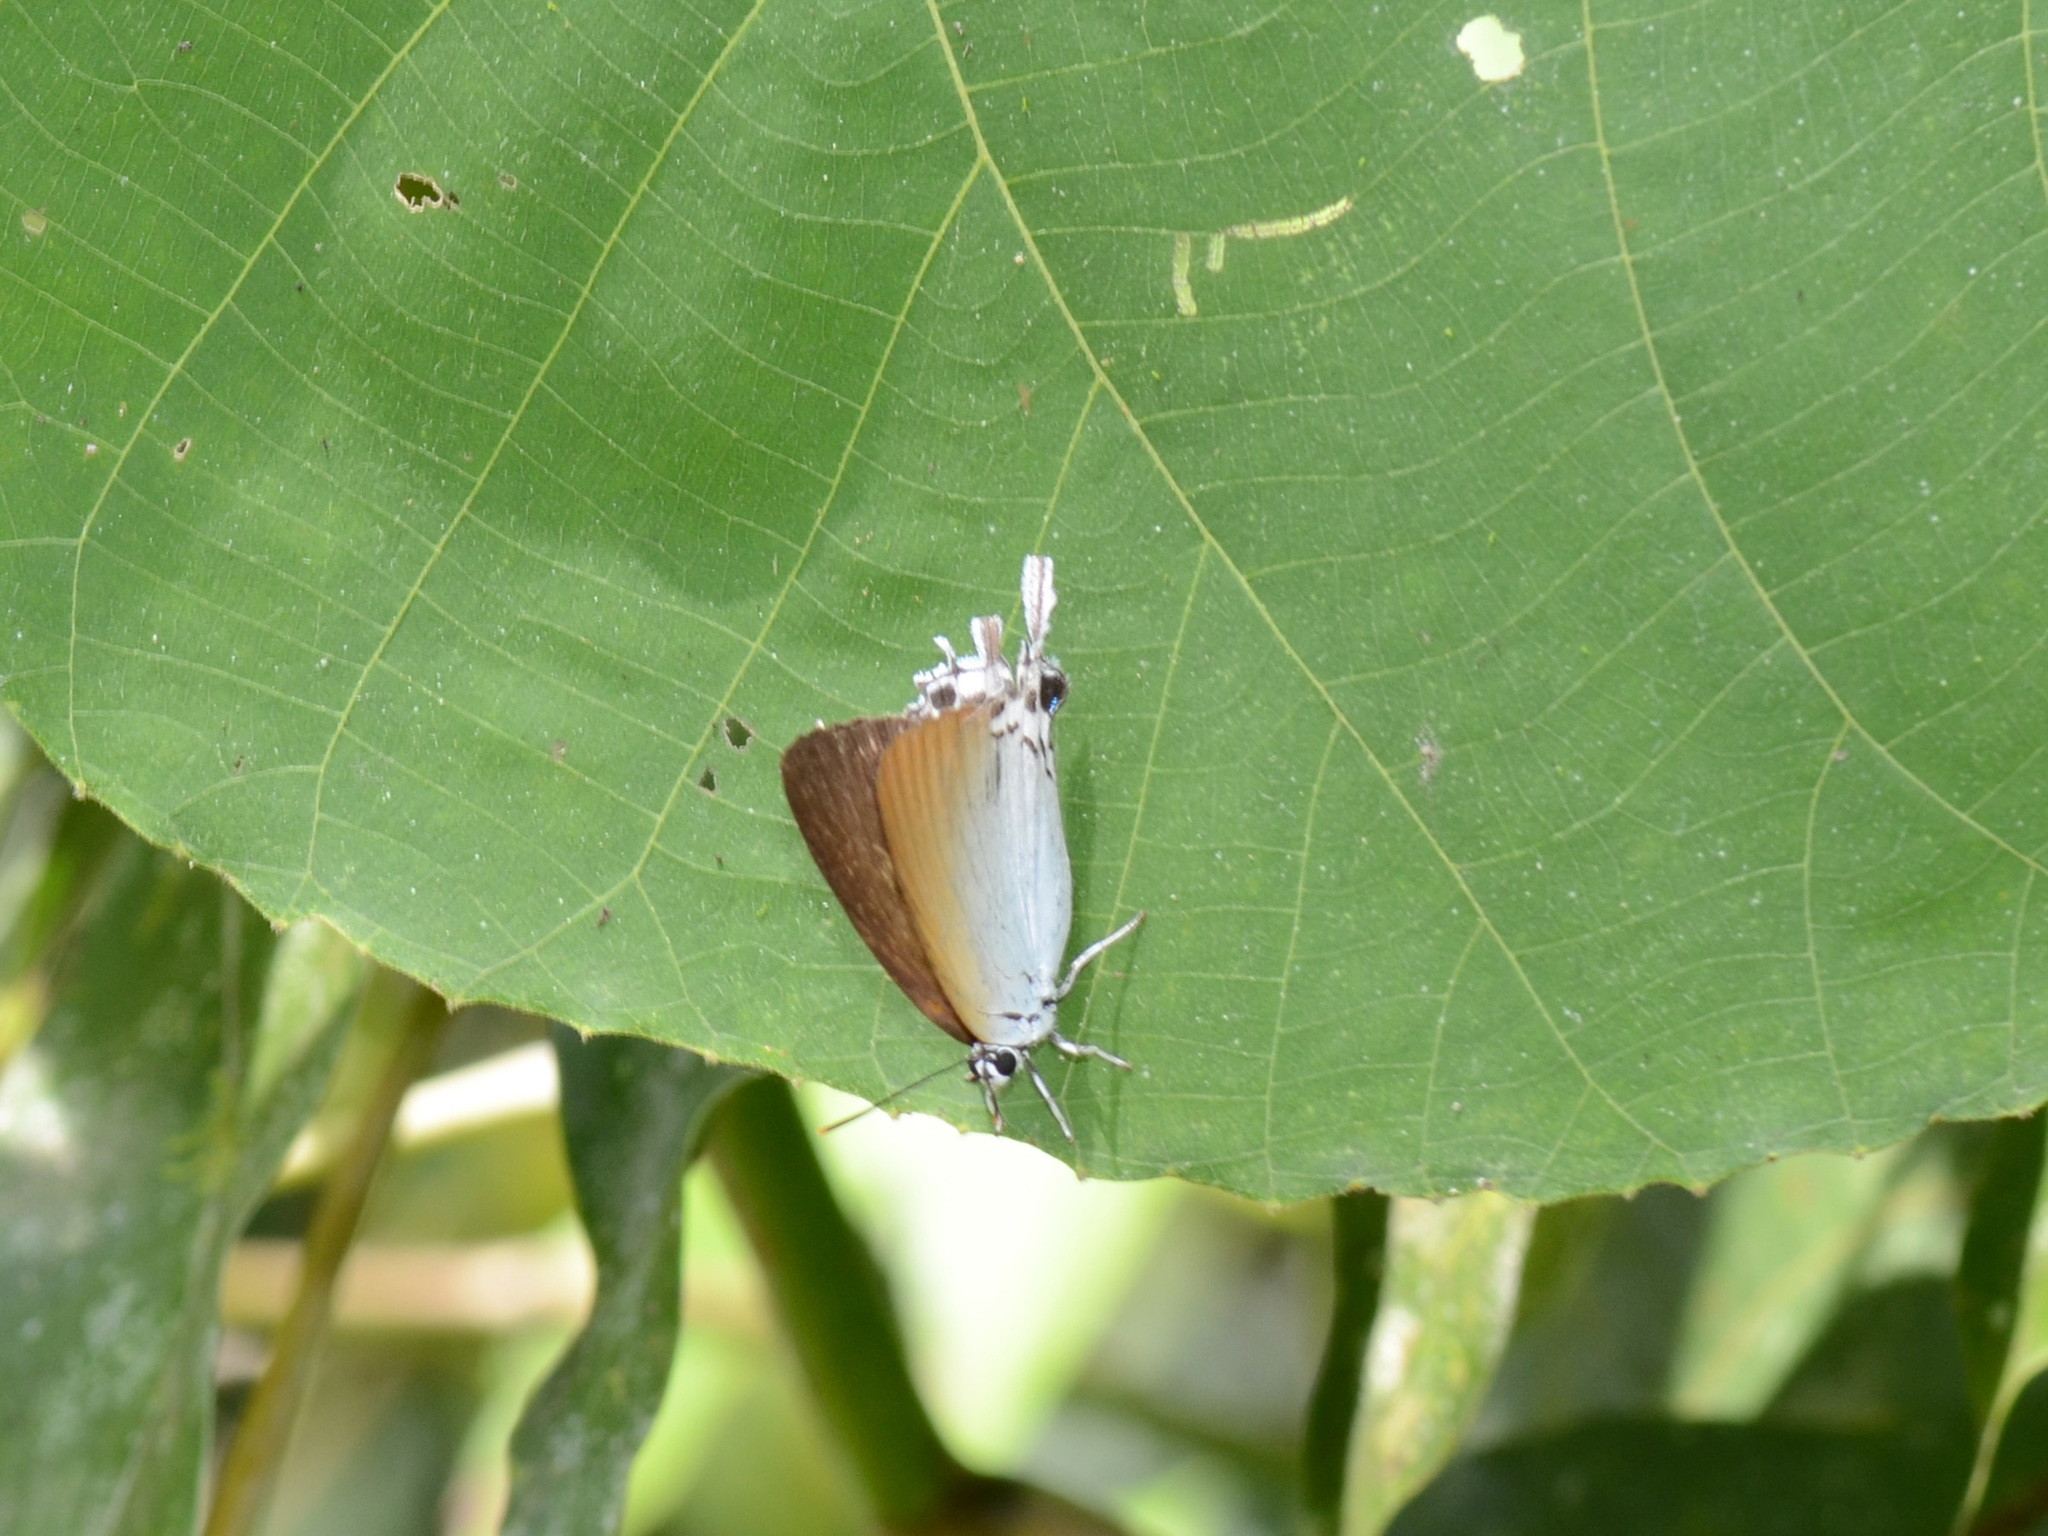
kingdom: Animalia
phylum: Arthropoda
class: Insecta
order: Lepidoptera
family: Lycaenidae
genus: Jacoona
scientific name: Jacoona anasuja
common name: Great imperial
